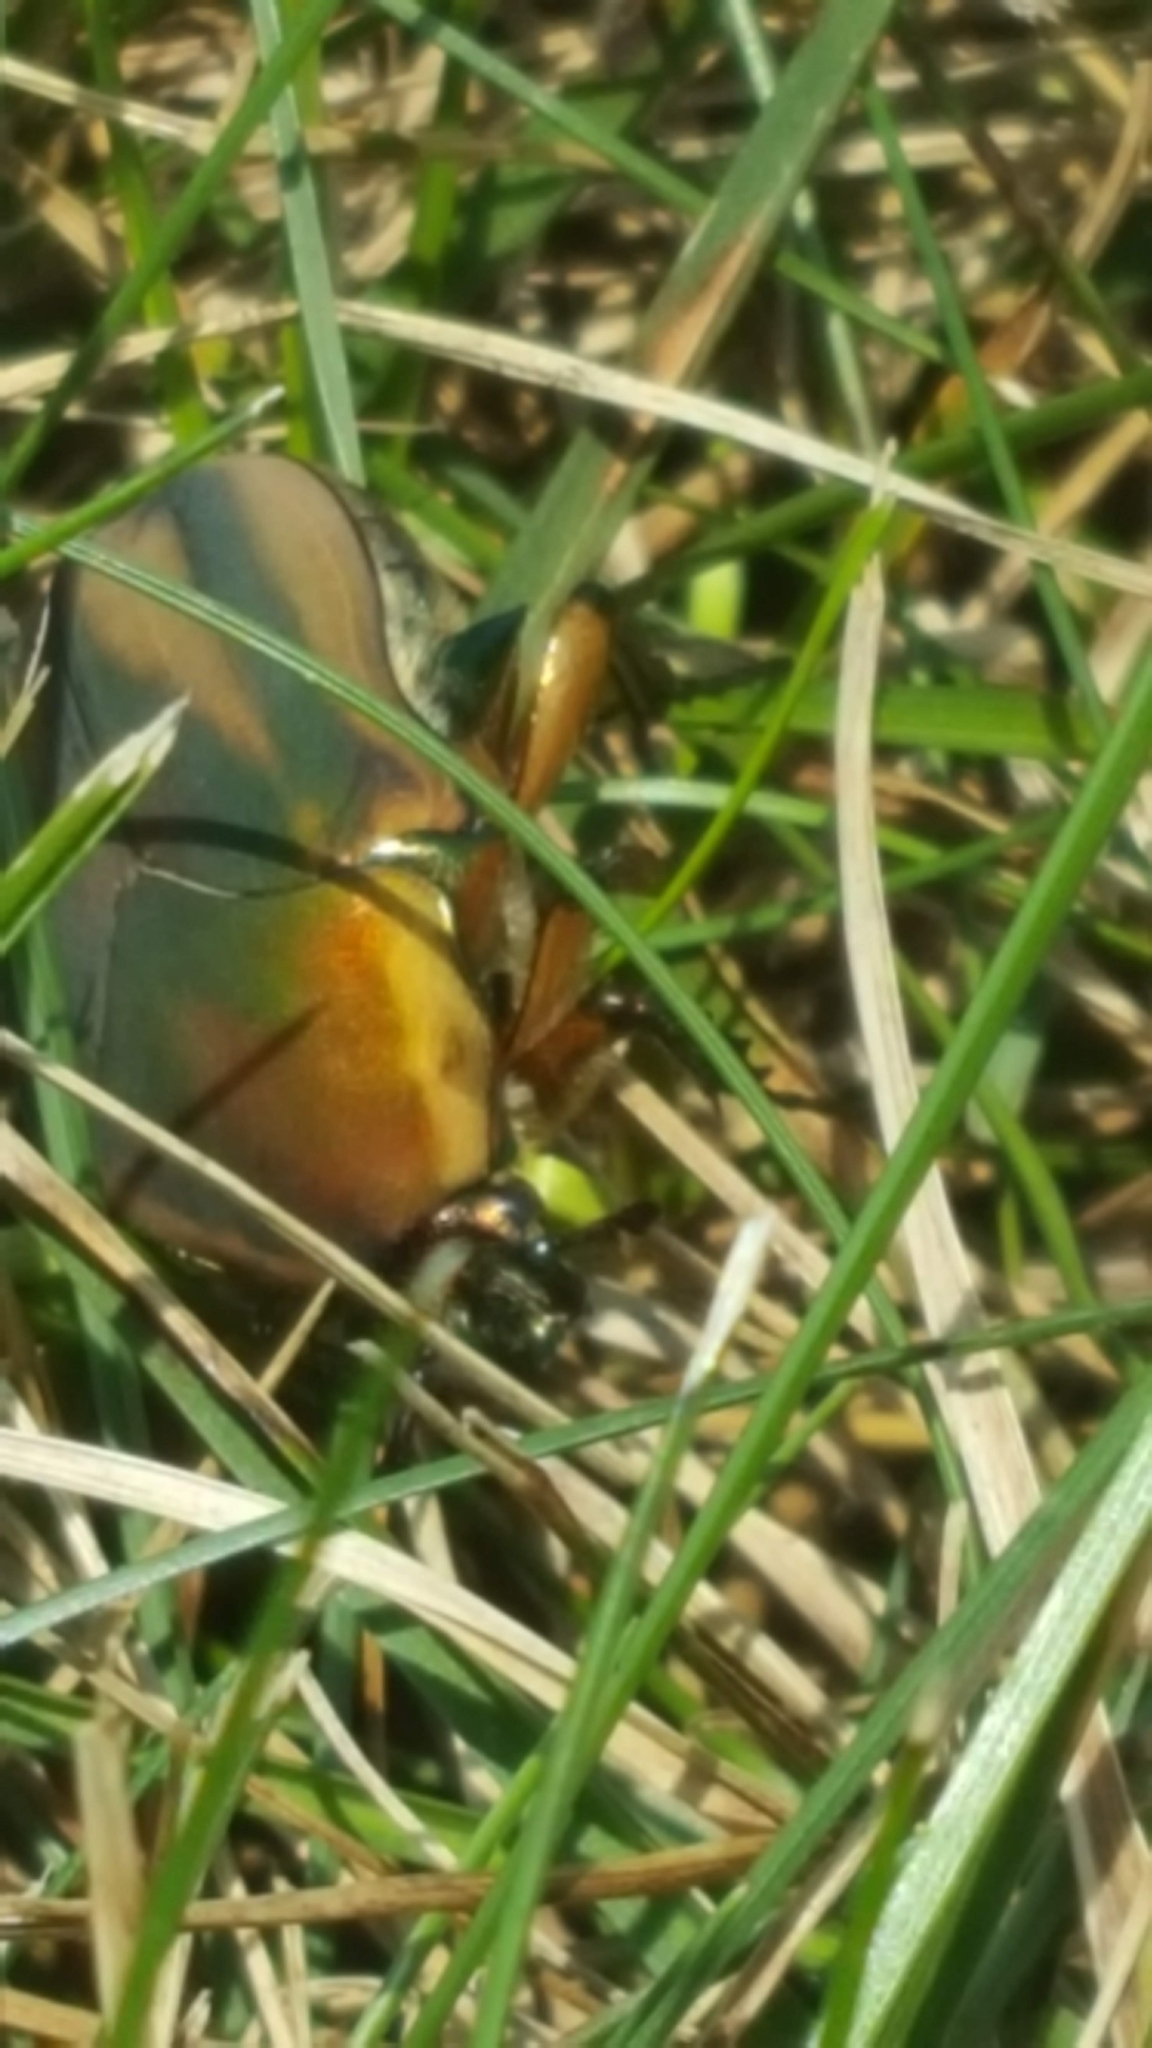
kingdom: Animalia
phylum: Arthropoda
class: Insecta
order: Coleoptera
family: Scarabaeidae
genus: Cotinis
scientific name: Cotinis nitida
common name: Common green june beetle
